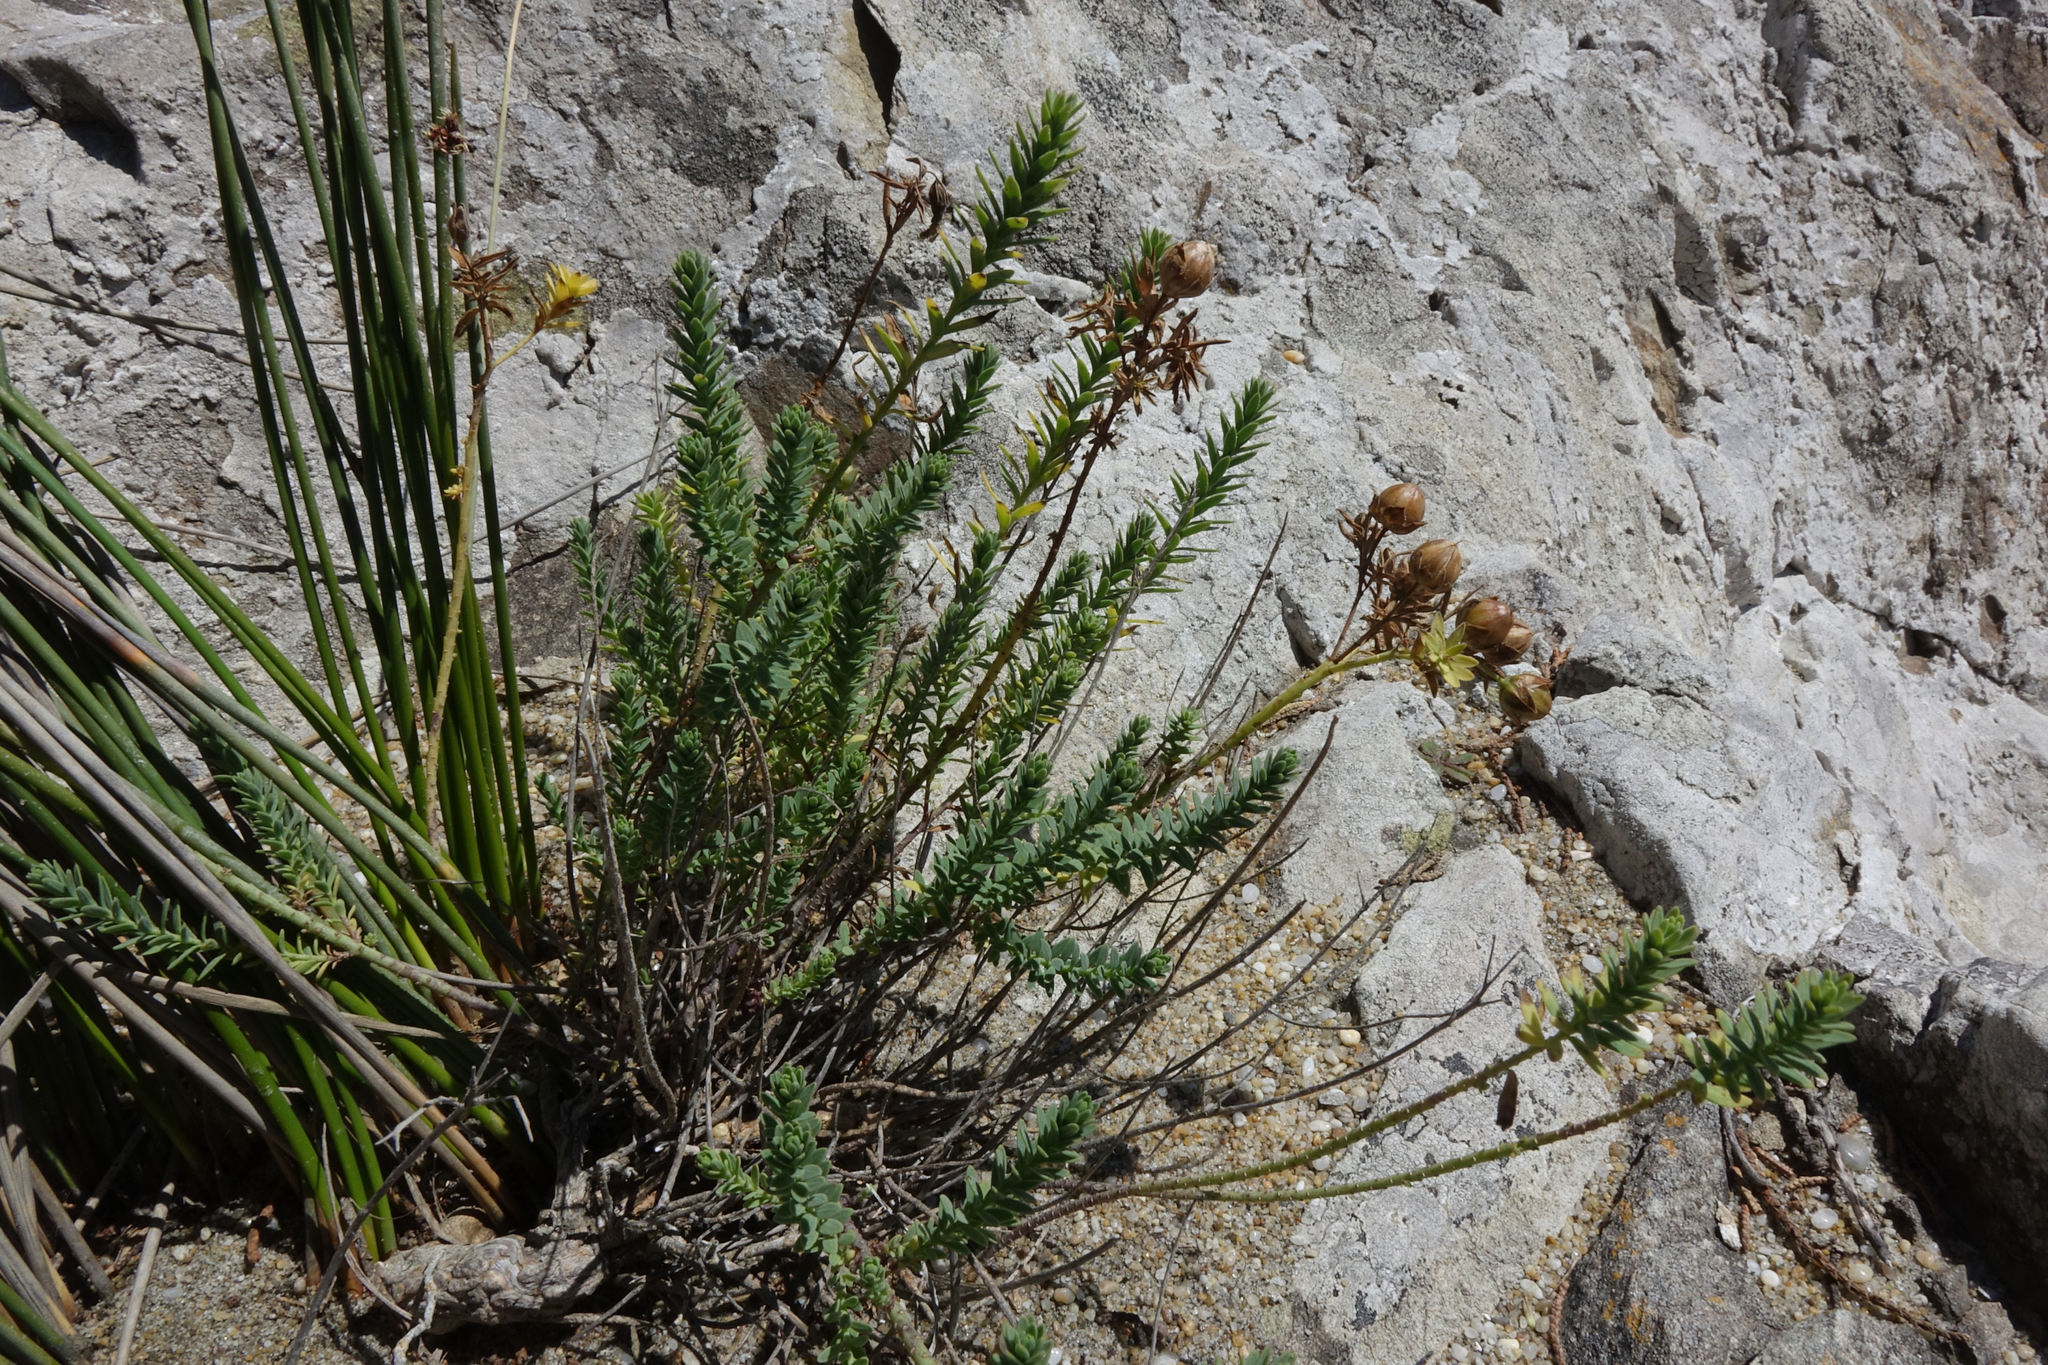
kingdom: Plantae
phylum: Tracheophyta
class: Magnoliopsida
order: Malpighiales
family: Linaceae
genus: Linum
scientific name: Linum monogynum
